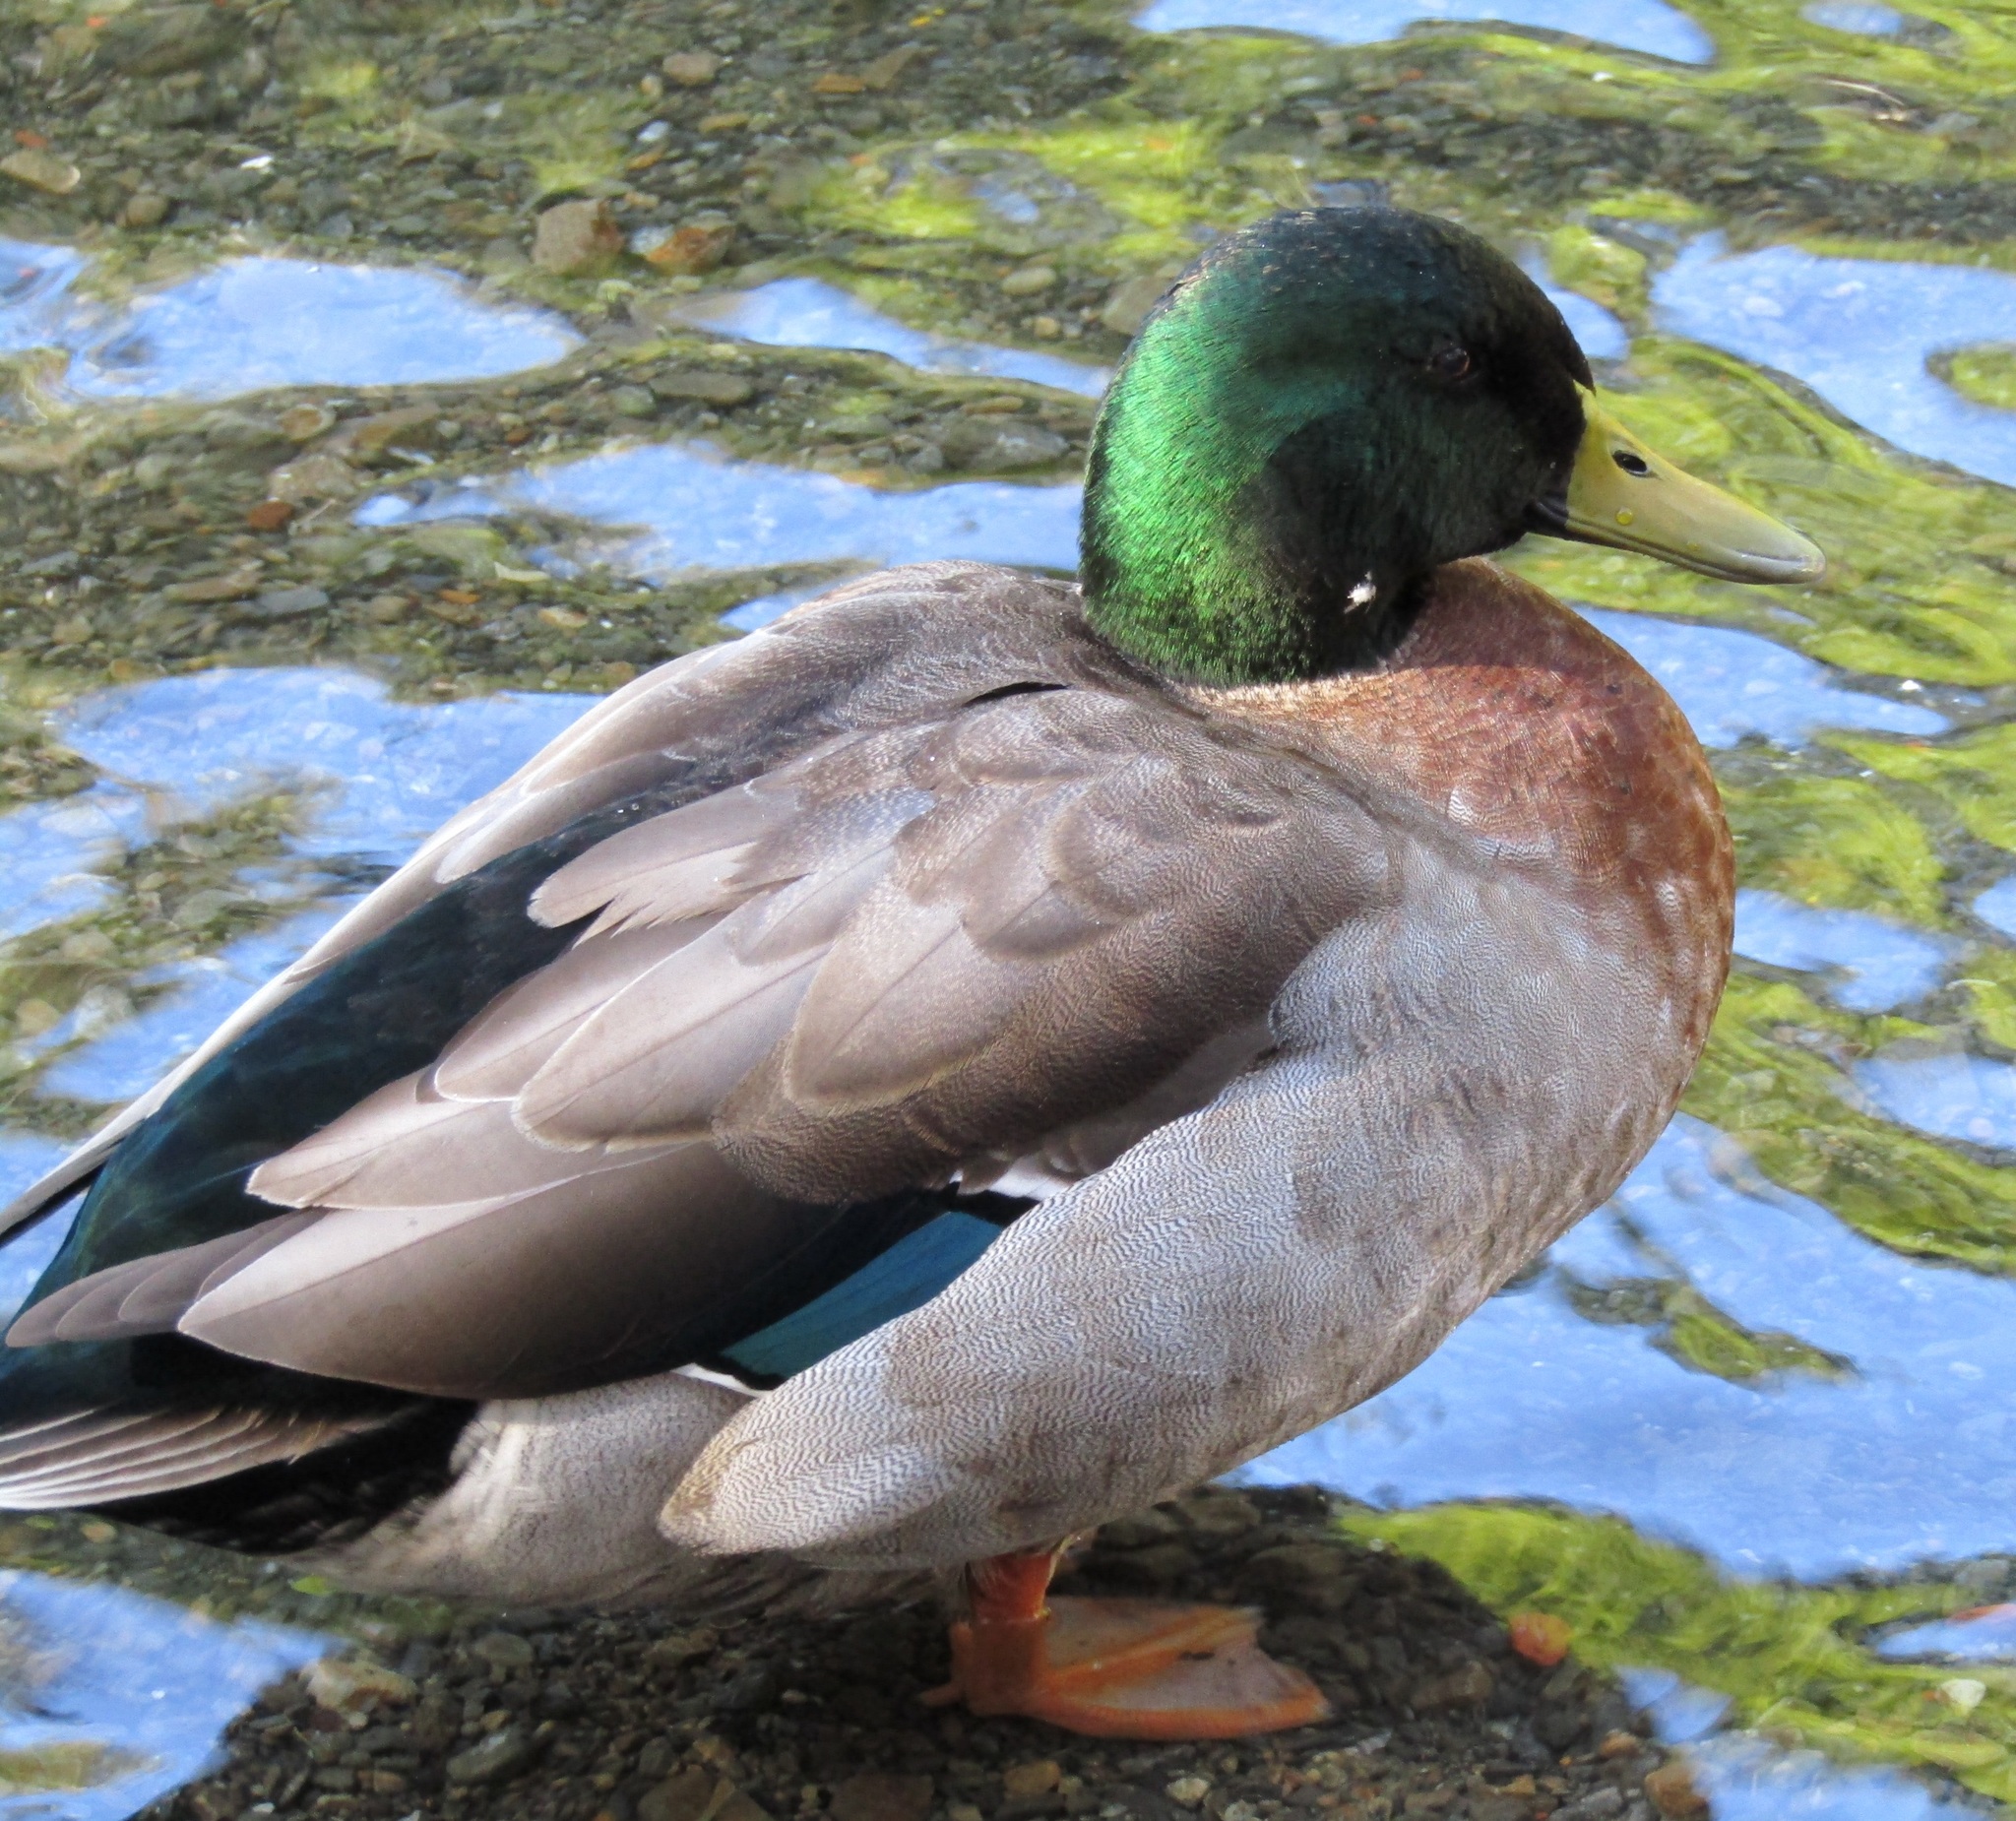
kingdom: Animalia
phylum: Chordata
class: Aves
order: Anseriformes
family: Anatidae
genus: Anas
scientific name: Anas
